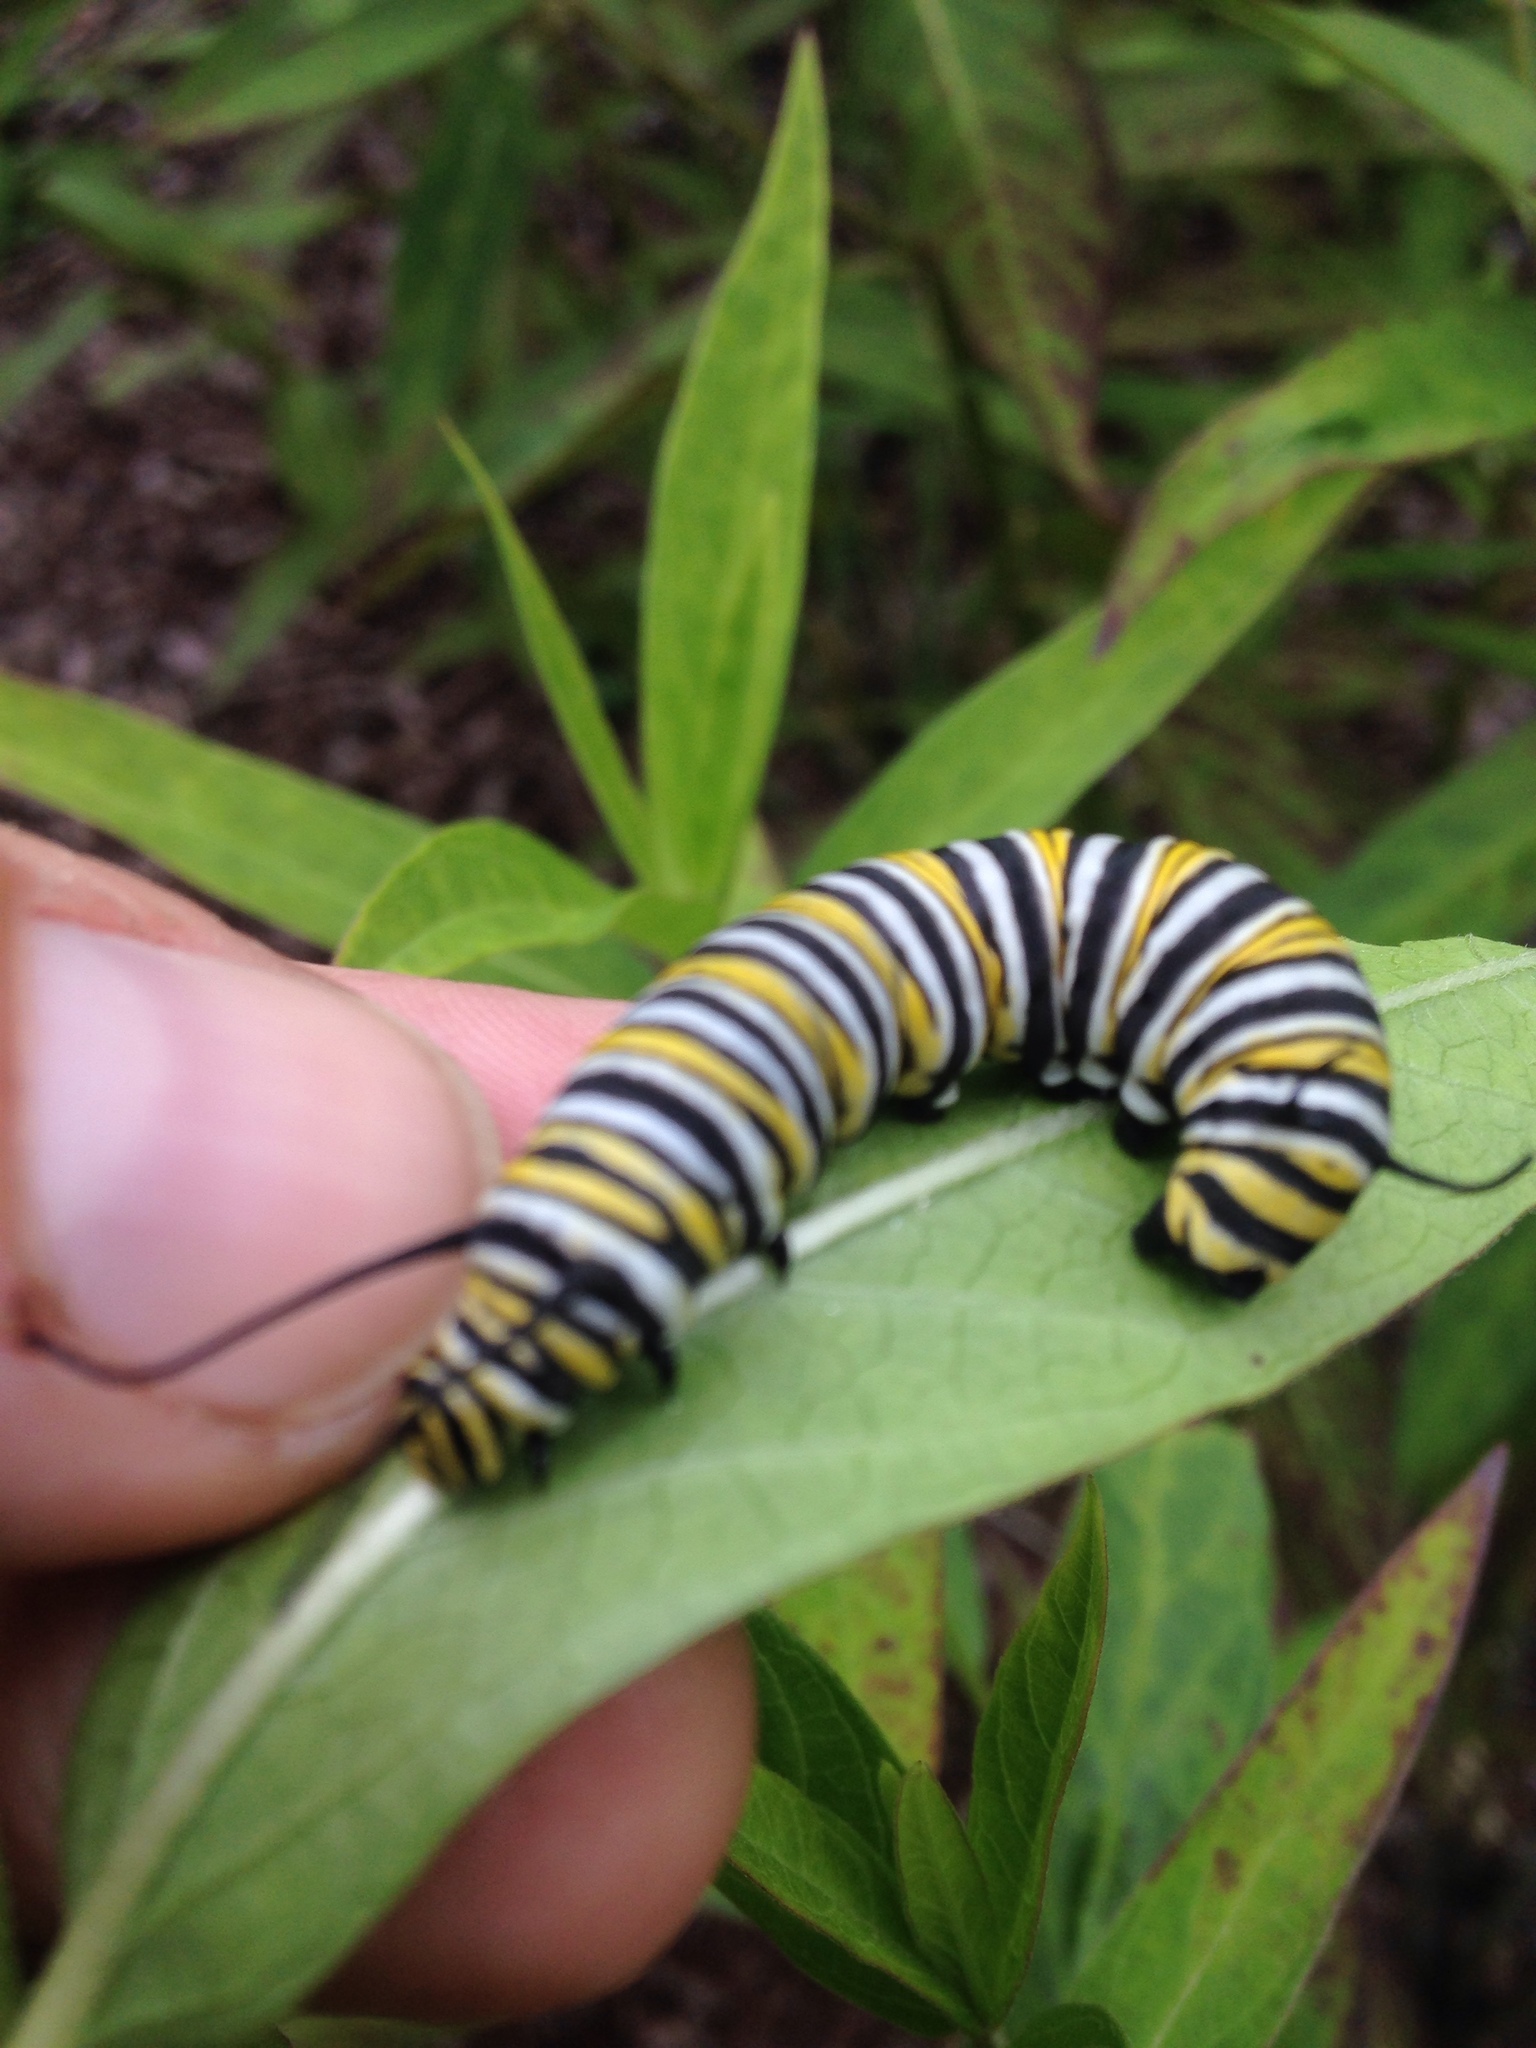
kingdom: Animalia
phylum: Arthropoda
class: Insecta
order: Lepidoptera
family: Nymphalidae
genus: Danaus
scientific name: Danaus plexippus
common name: Monarch
